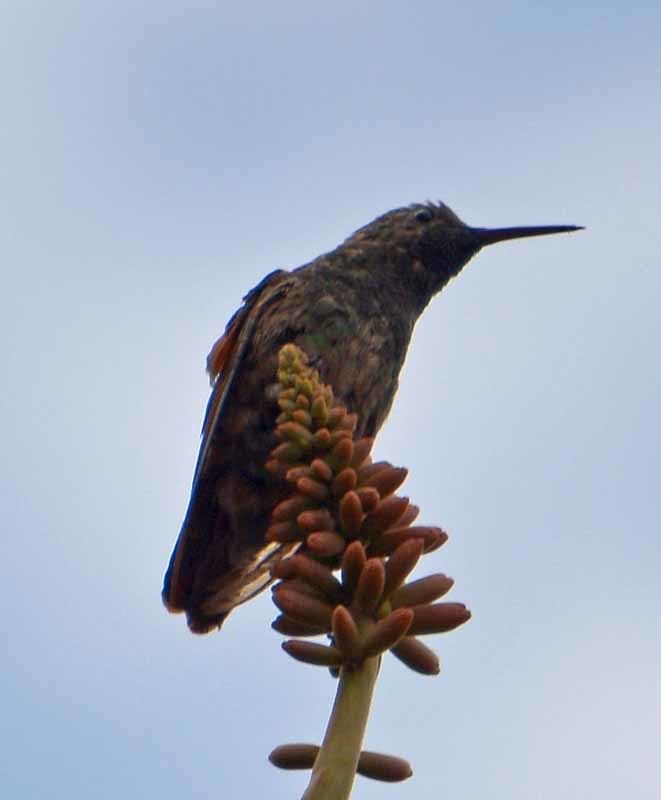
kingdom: Animalia
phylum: Chordata
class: Aves
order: Apodiformes
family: Trochilidae
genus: Saucerottia
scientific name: Saucerottia beryllina
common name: Berylline hummingbird
